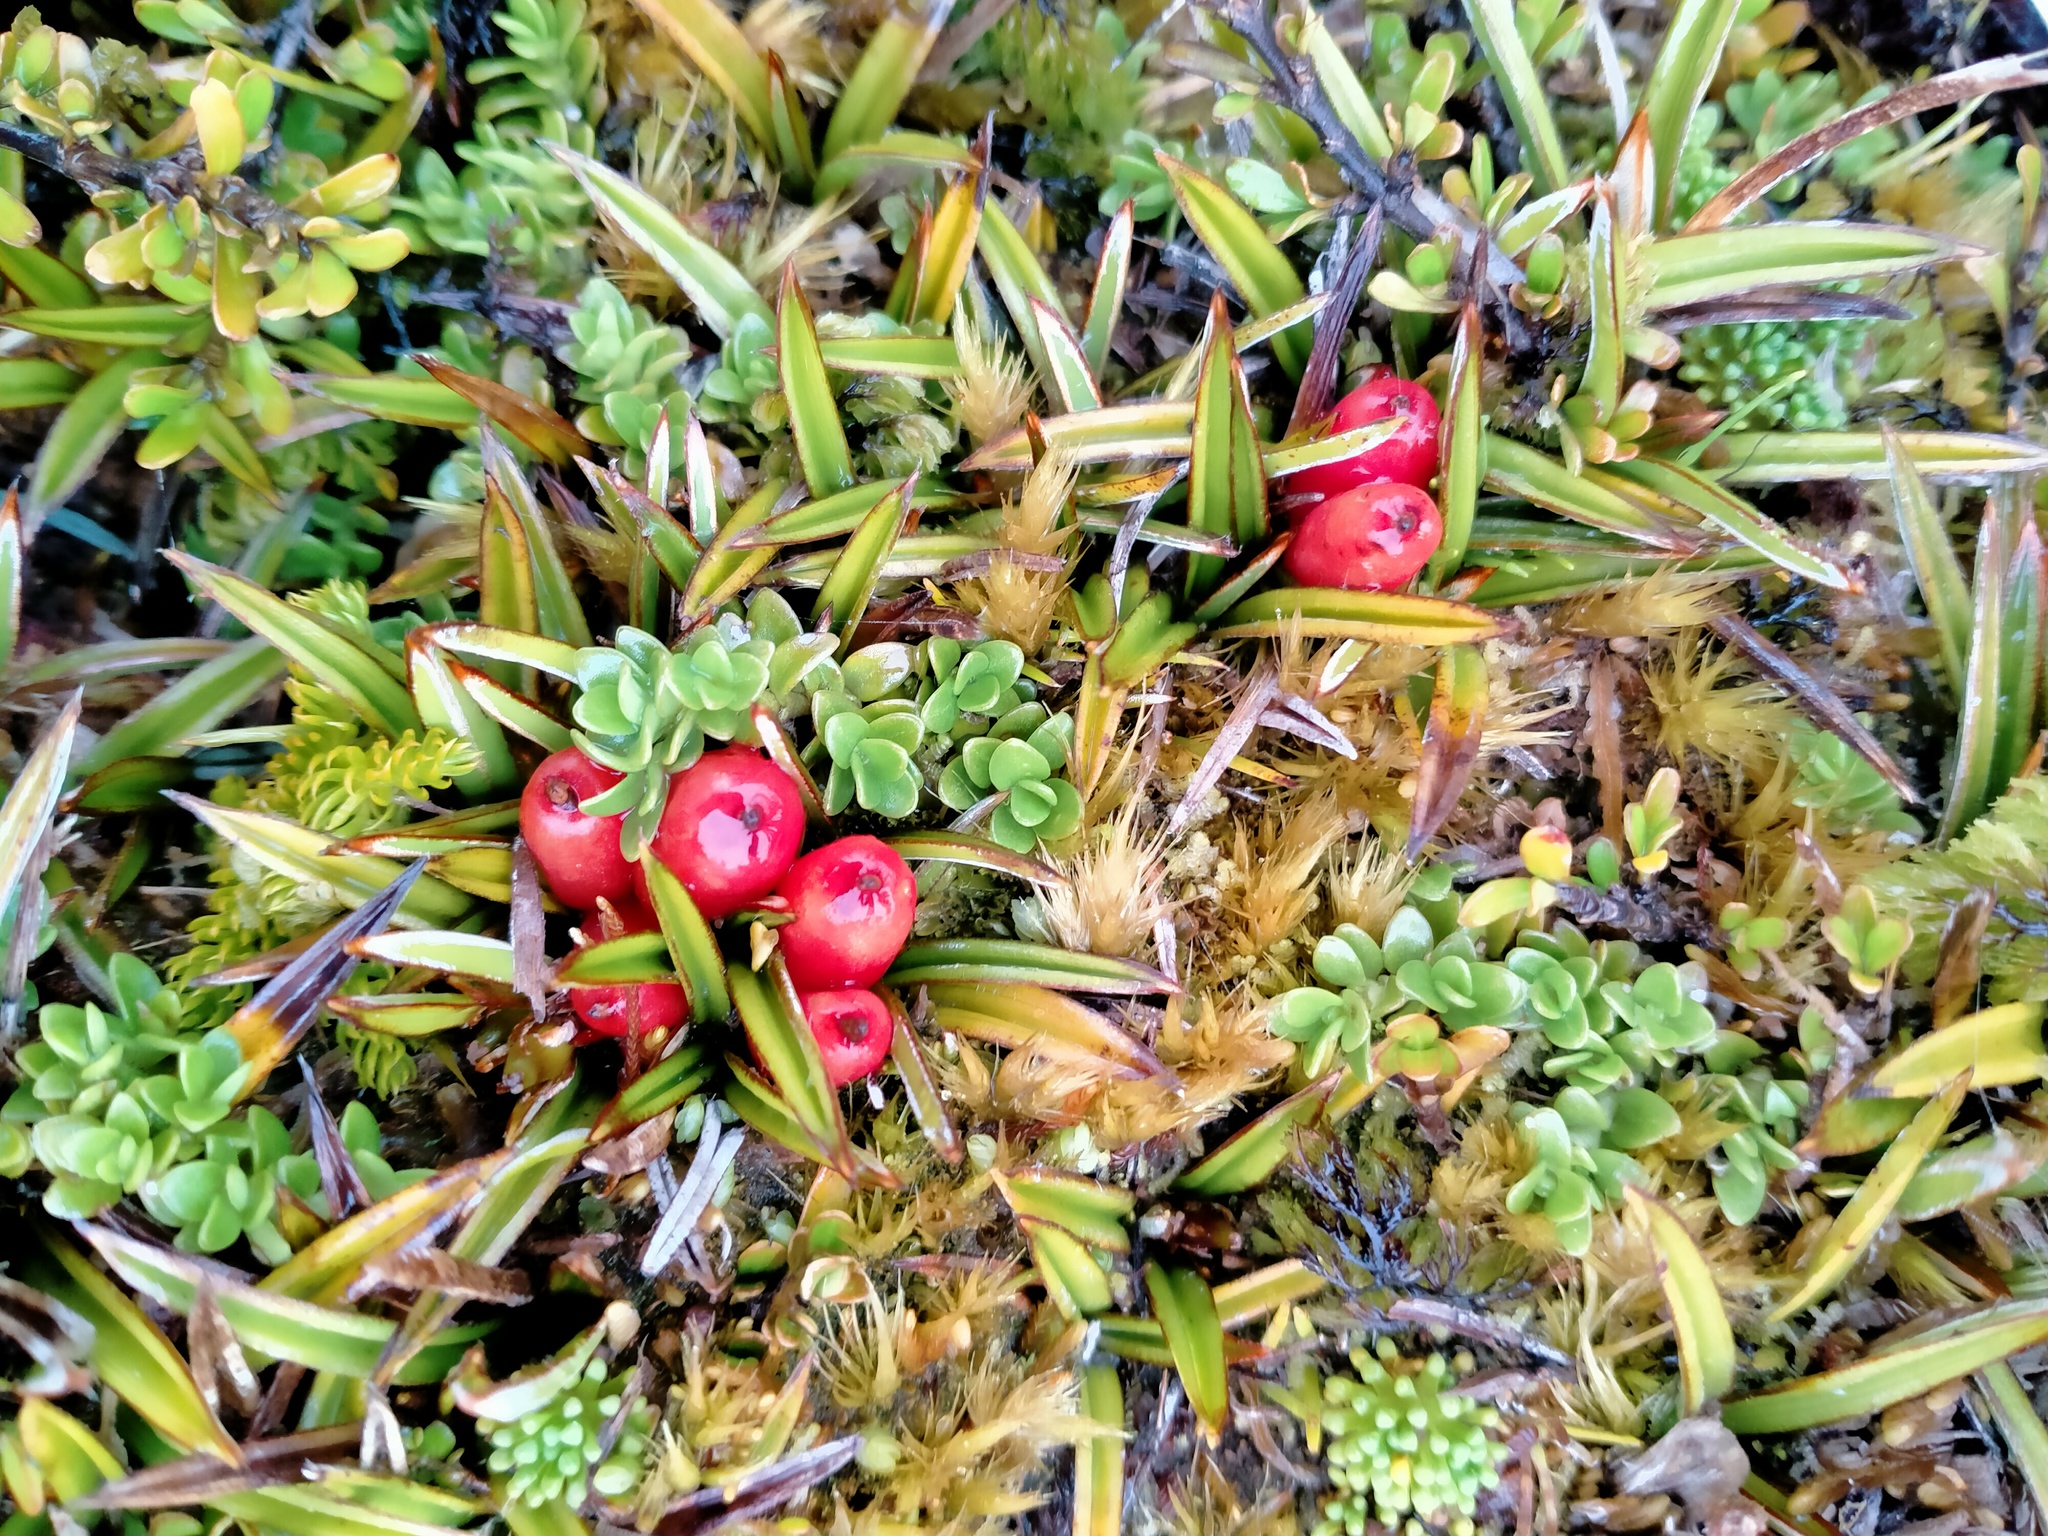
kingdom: Plantae
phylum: Tracheophyta
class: Liliopsida
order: Asparagales
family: Asteliaceae
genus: Astelia
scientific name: Astelia linearis
